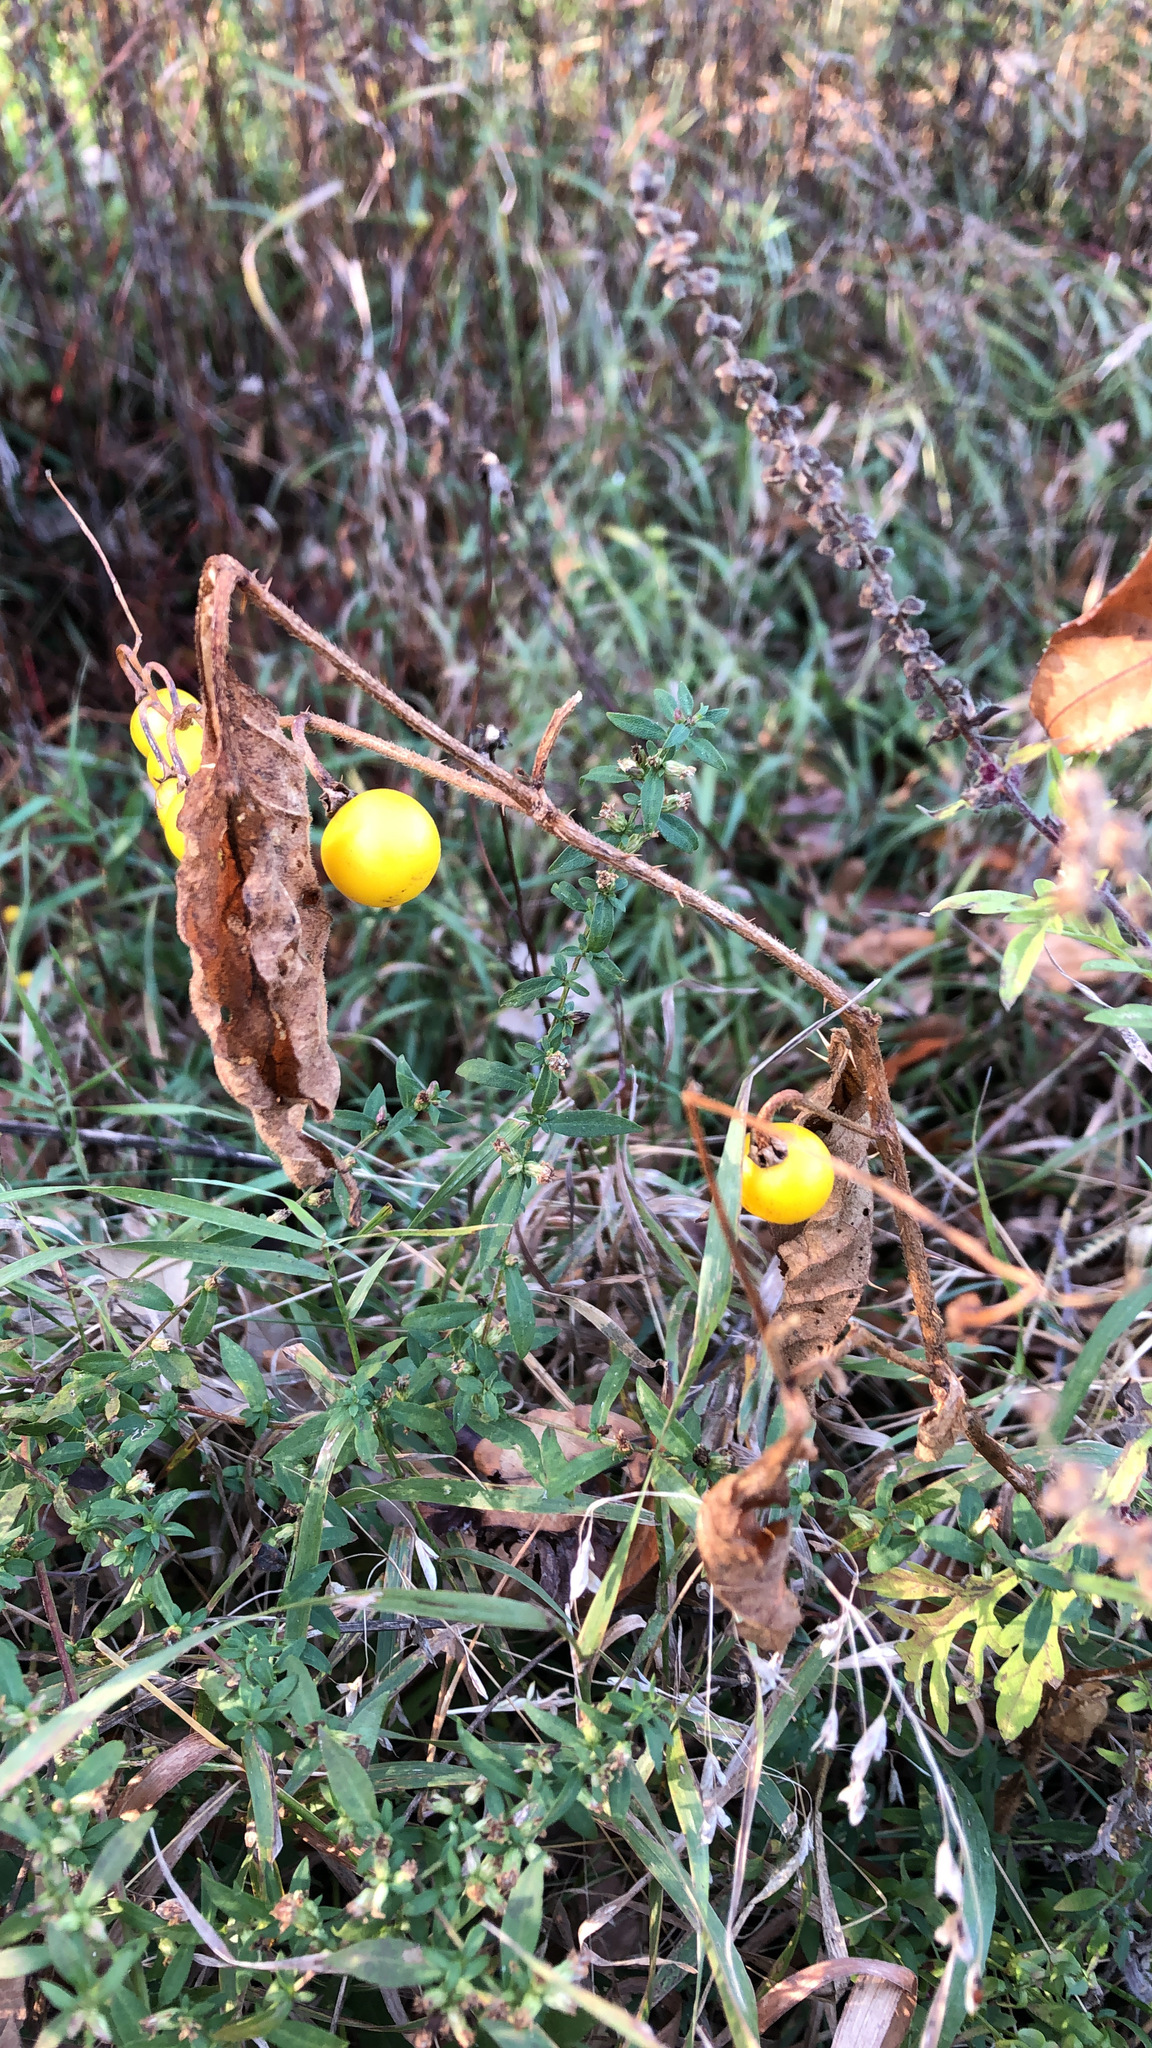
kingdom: Plantae
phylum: Tracheophyta
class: Magnoliopsida
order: Solanales
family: Solanaceae
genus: Solanum
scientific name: Solanum carolinense
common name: Horse-nettle
